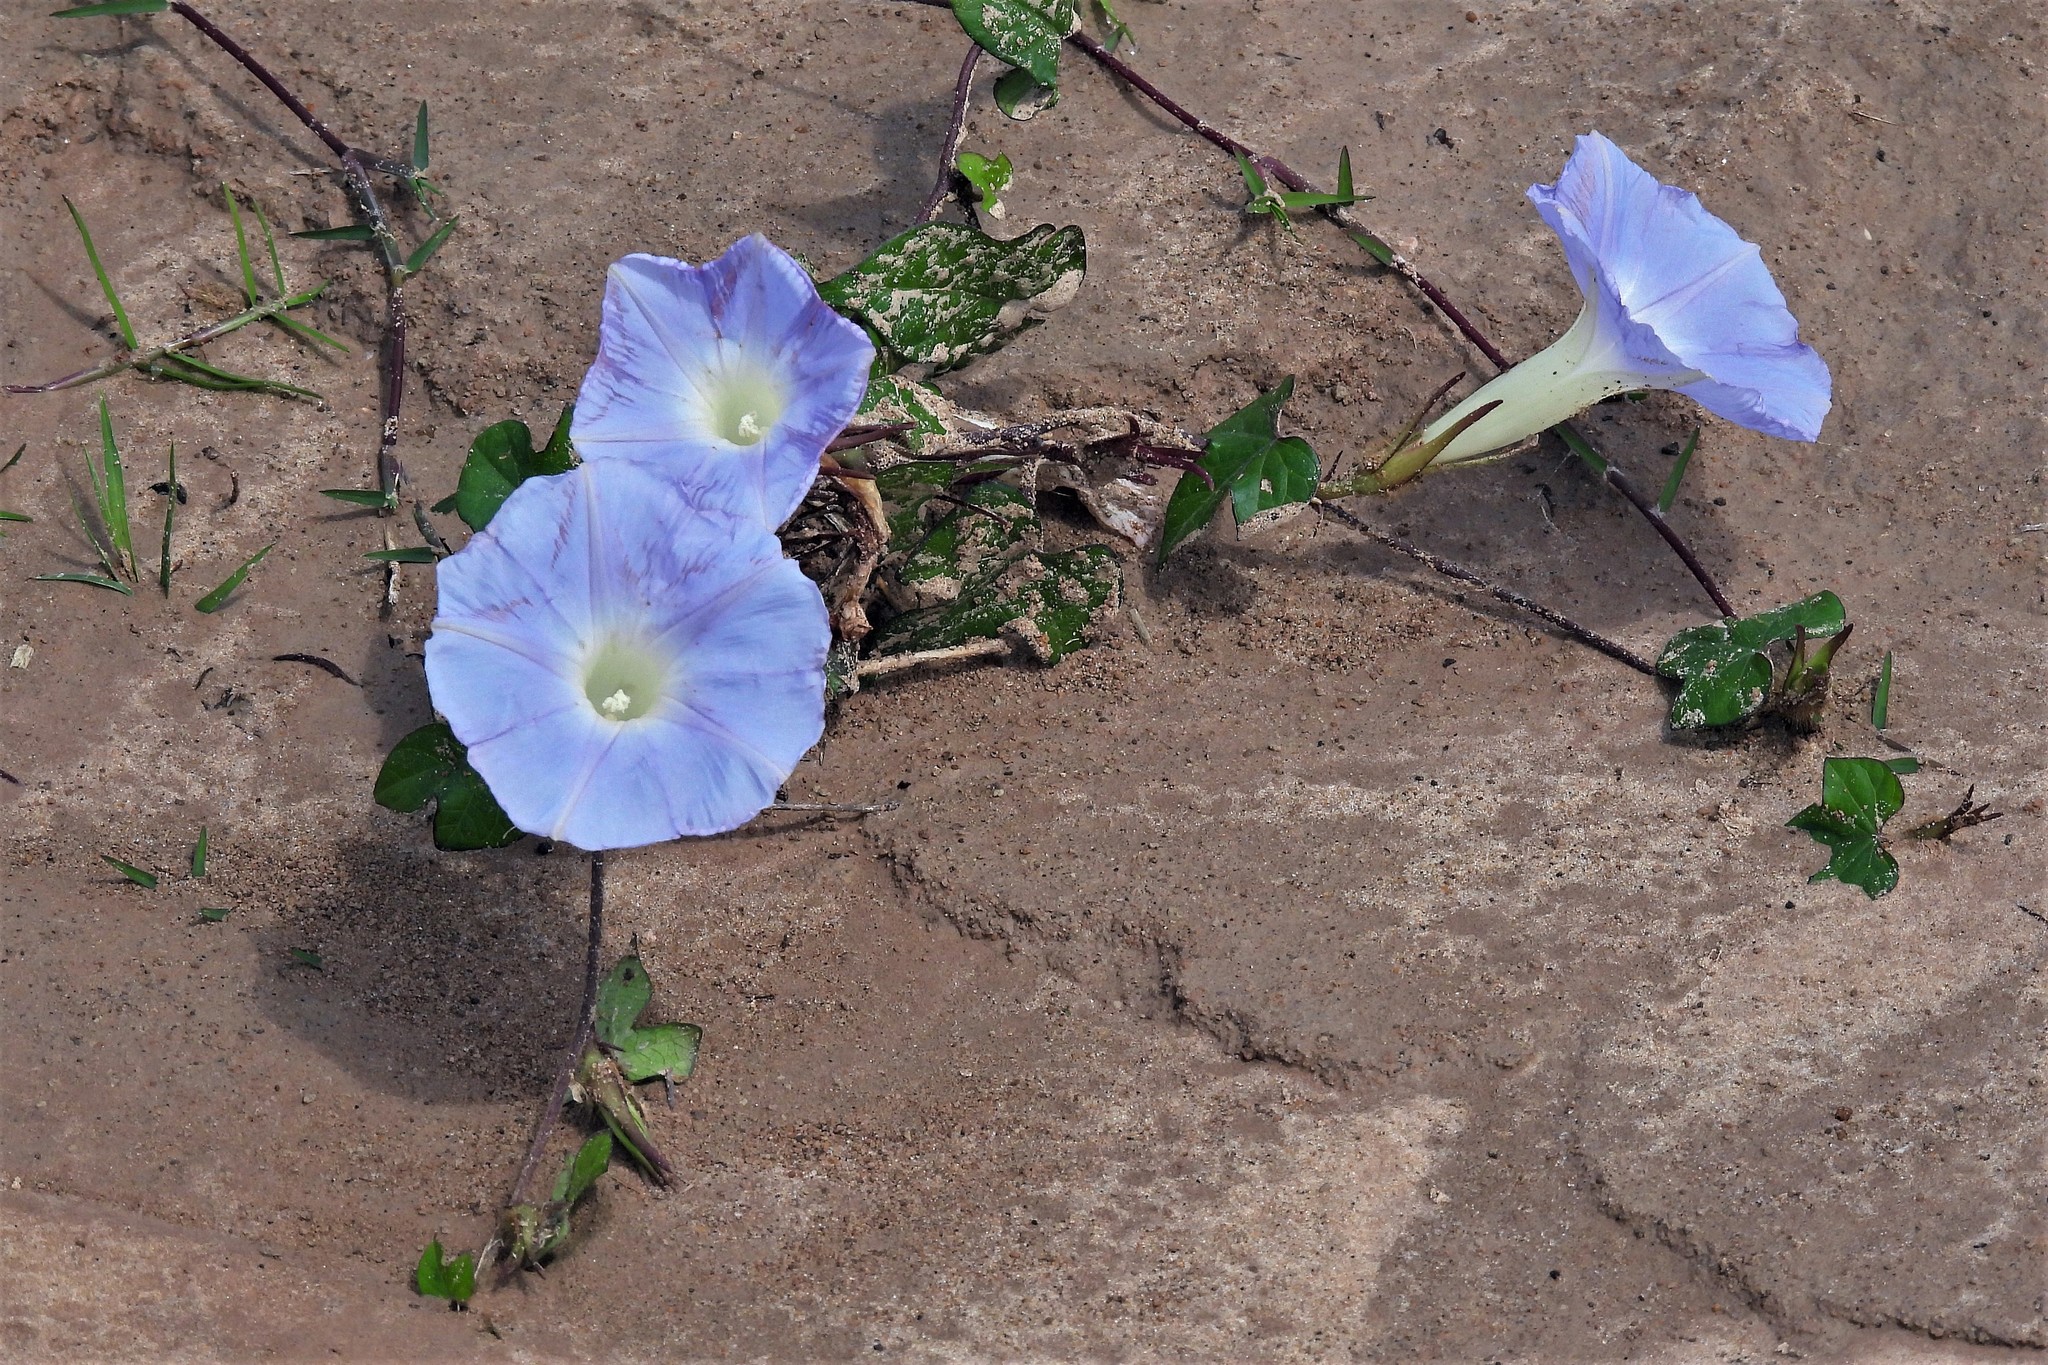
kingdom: Plantae
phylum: Tracheophyta
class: Magnoliopsida
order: Solanales
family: Convolvulaceae
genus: Ipomoea
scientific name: Ipomoea nil
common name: Japanese morning-glory
